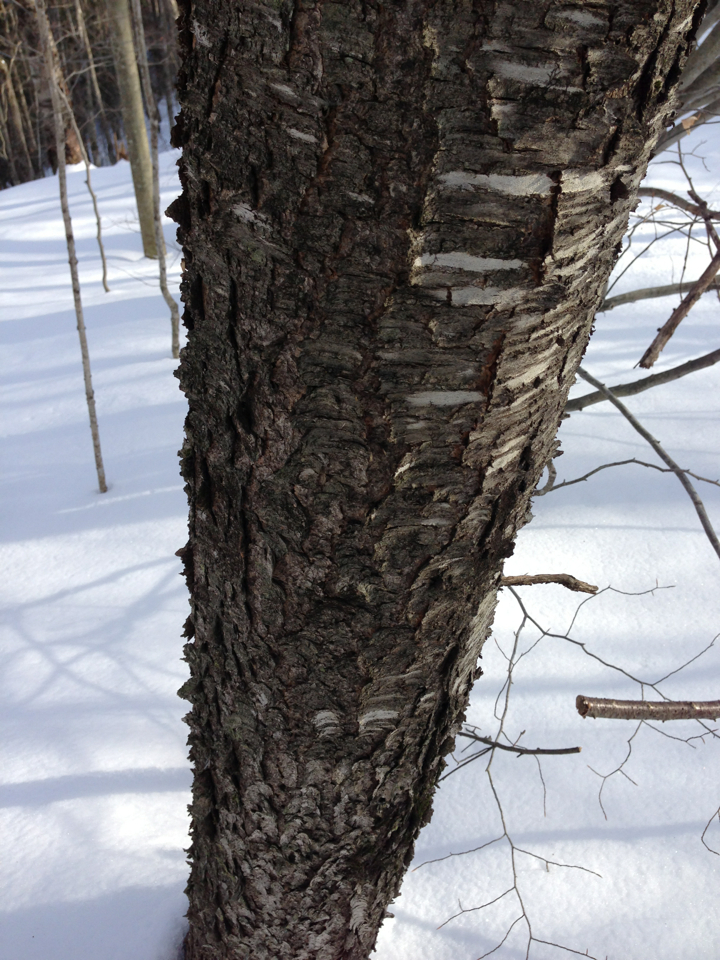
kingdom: Plantae
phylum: Tracheophyta
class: Magnoliopsida
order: Rosales
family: Rosaceae
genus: Prunus
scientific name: Prunus serotina
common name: Black cherry
